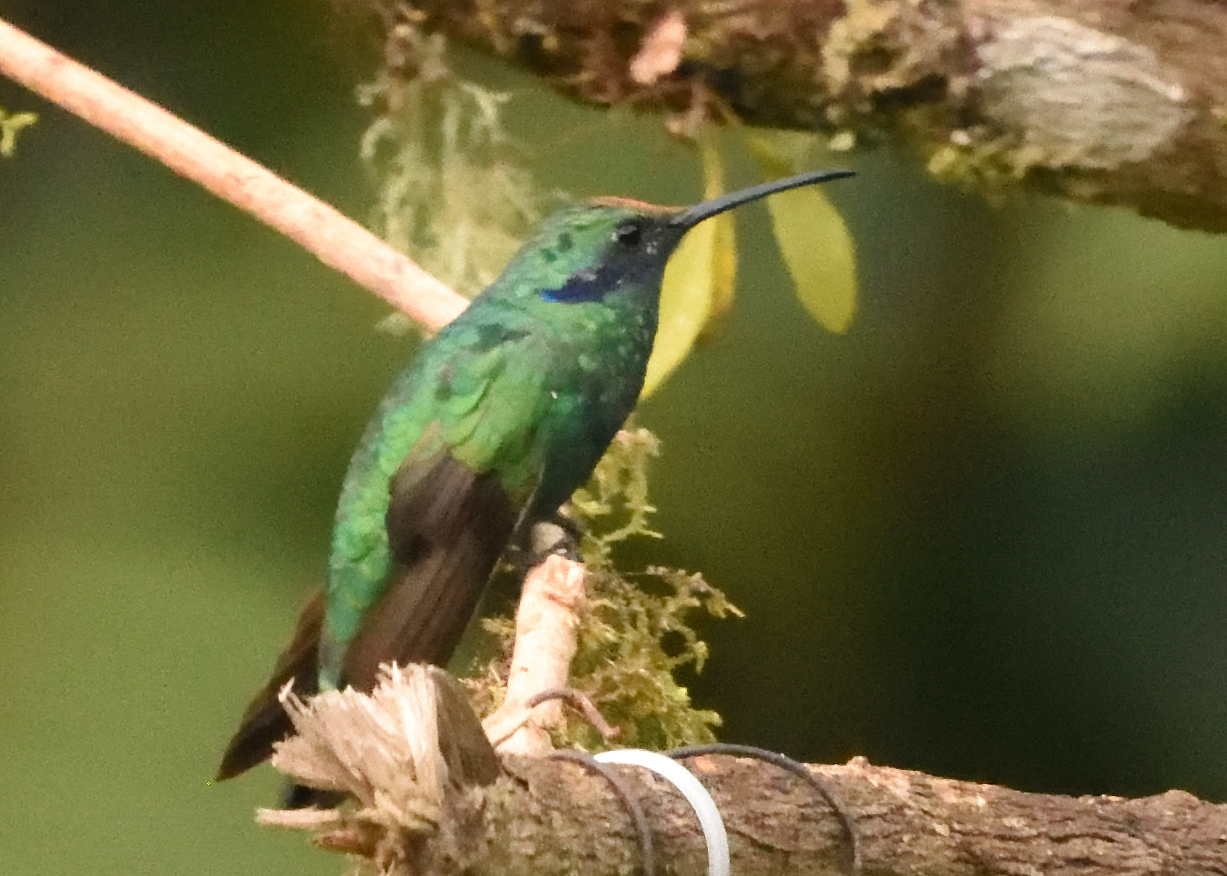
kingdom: Animalia
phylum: Chordata
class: Aves
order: Apodiformes
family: Trochilidae
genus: Colibri
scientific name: Colibri coruscans
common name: Sparkling violetear
